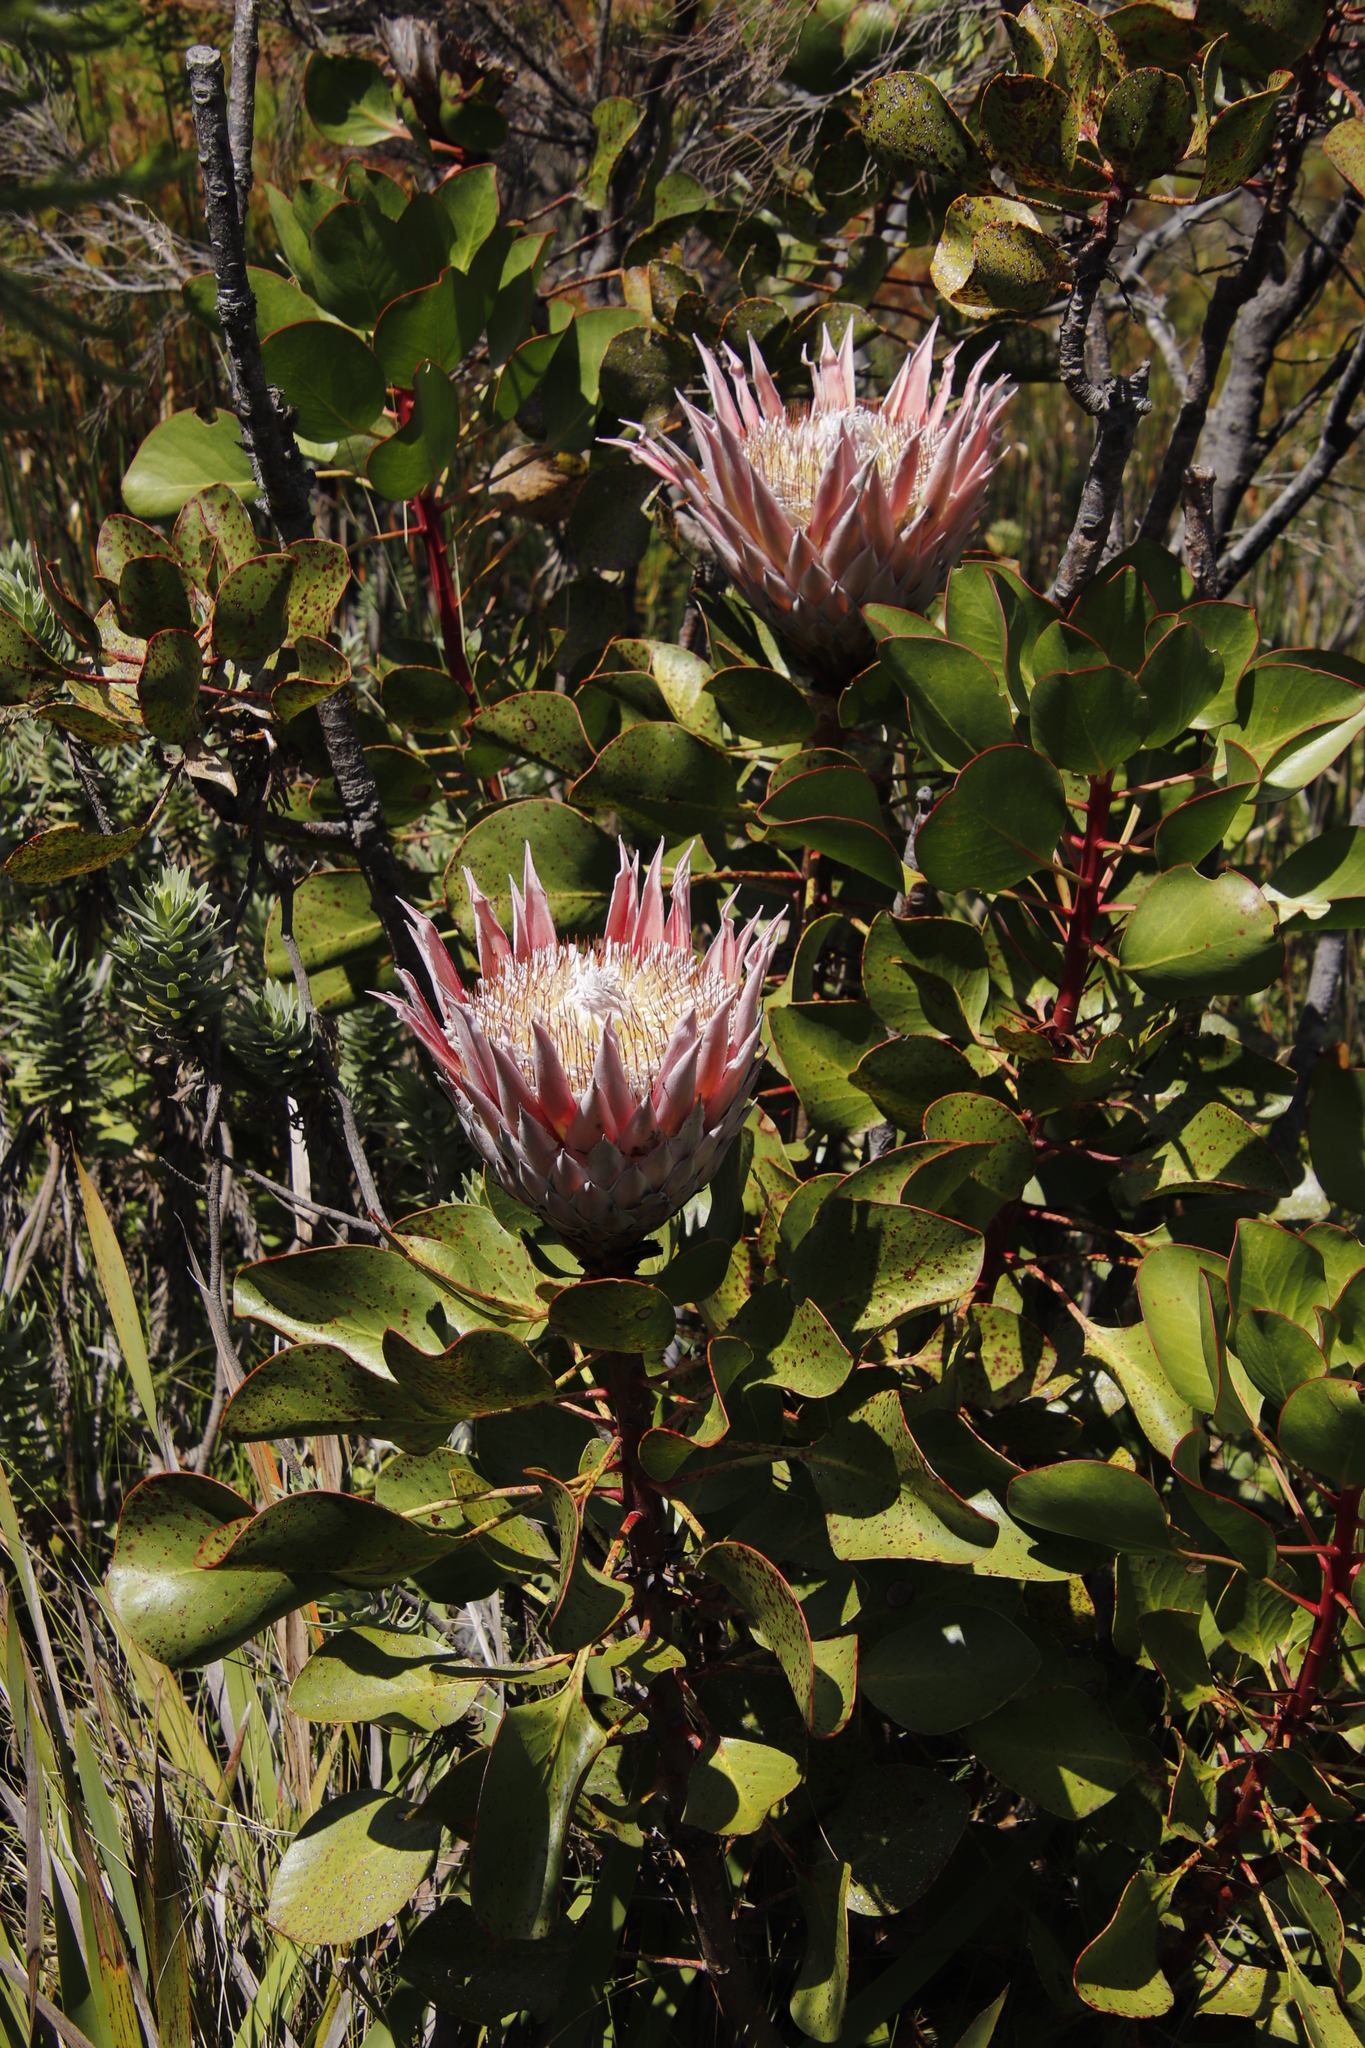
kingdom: Plantae
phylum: Tracheophyta
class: Magnoliopsida
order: Proteales
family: Proteaceae
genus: Protea
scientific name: Protea cynaroides
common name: King protea
